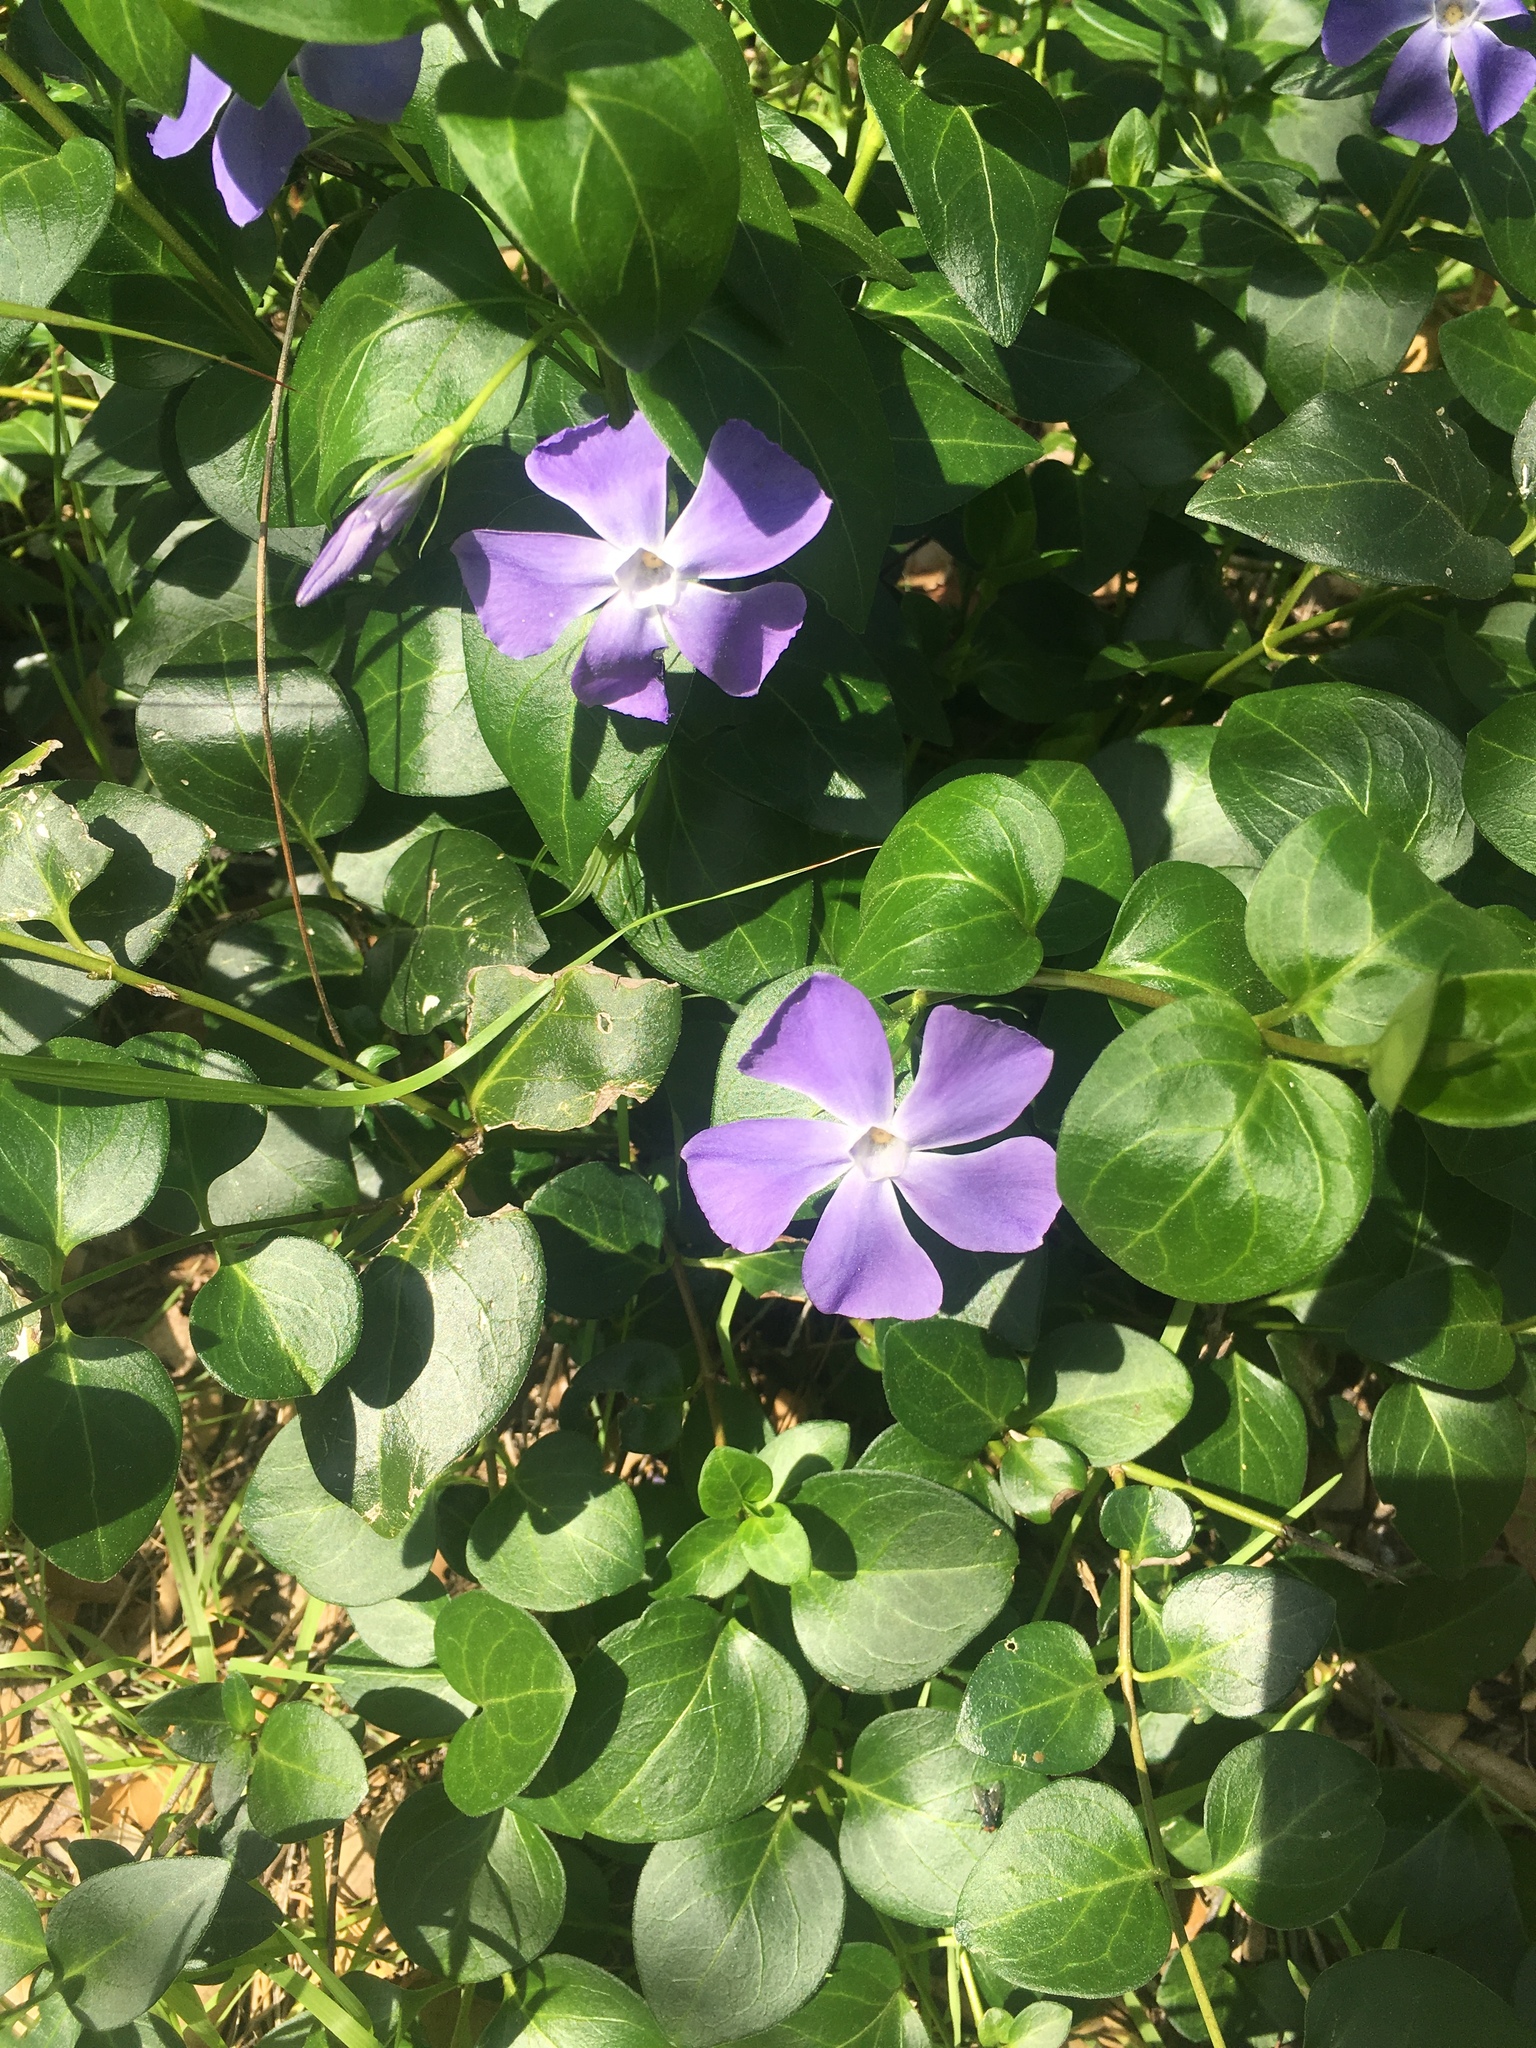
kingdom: Plantae
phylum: Tracheophyta
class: Magnoliopsida
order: Gentianales
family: Apocynaceae
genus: Vinca
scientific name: Vinca major
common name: Greater periwinkle
